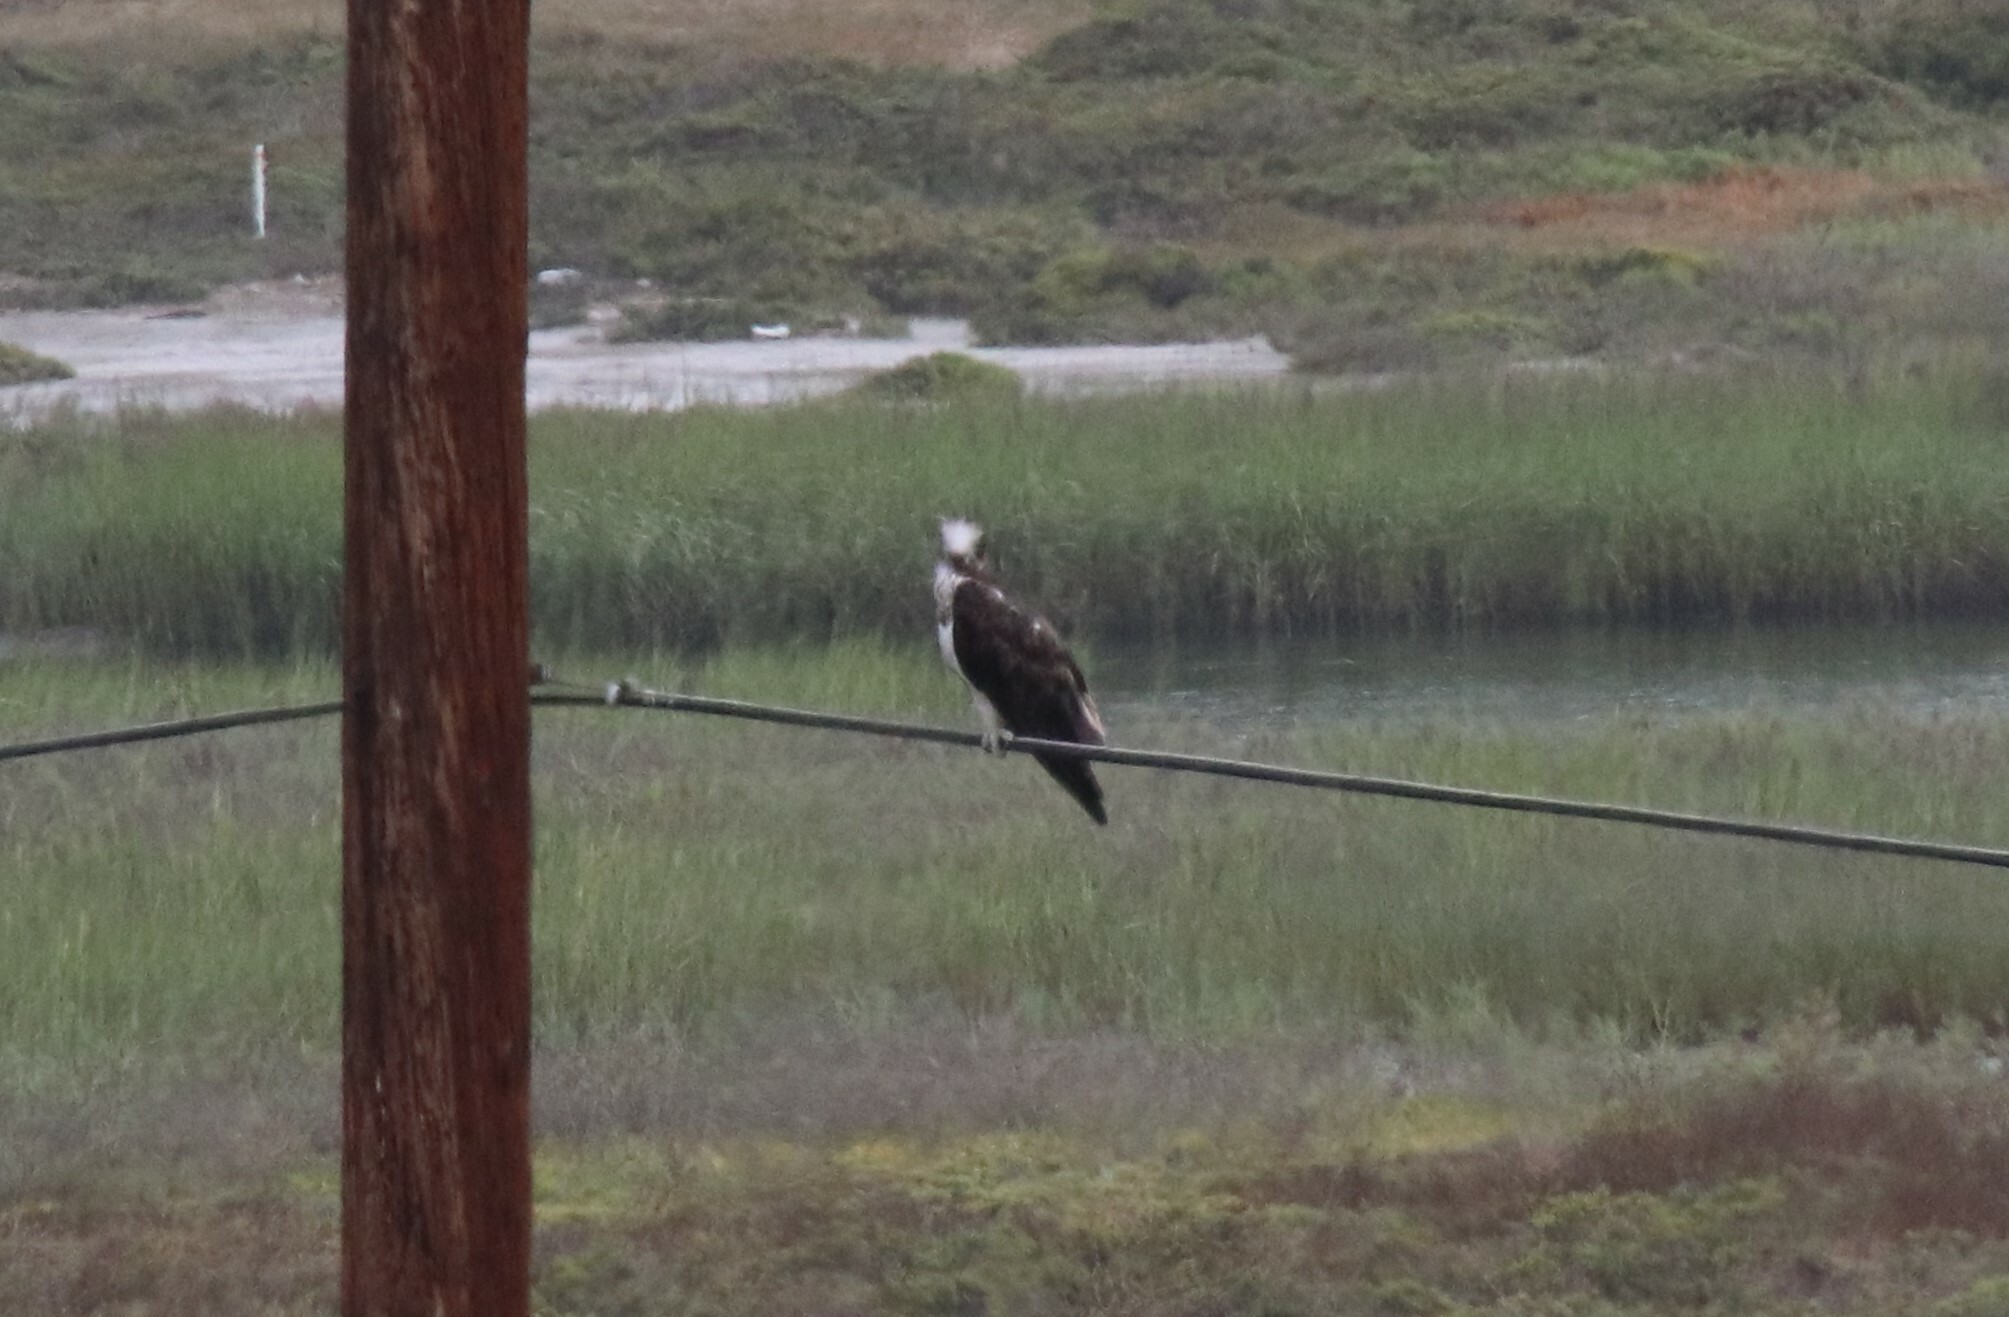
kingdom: Animalia
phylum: Chordata
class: Aves
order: Accipitriformes
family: Pandionidae
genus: Pandion
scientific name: Pandion haliaetus
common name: Osprey
